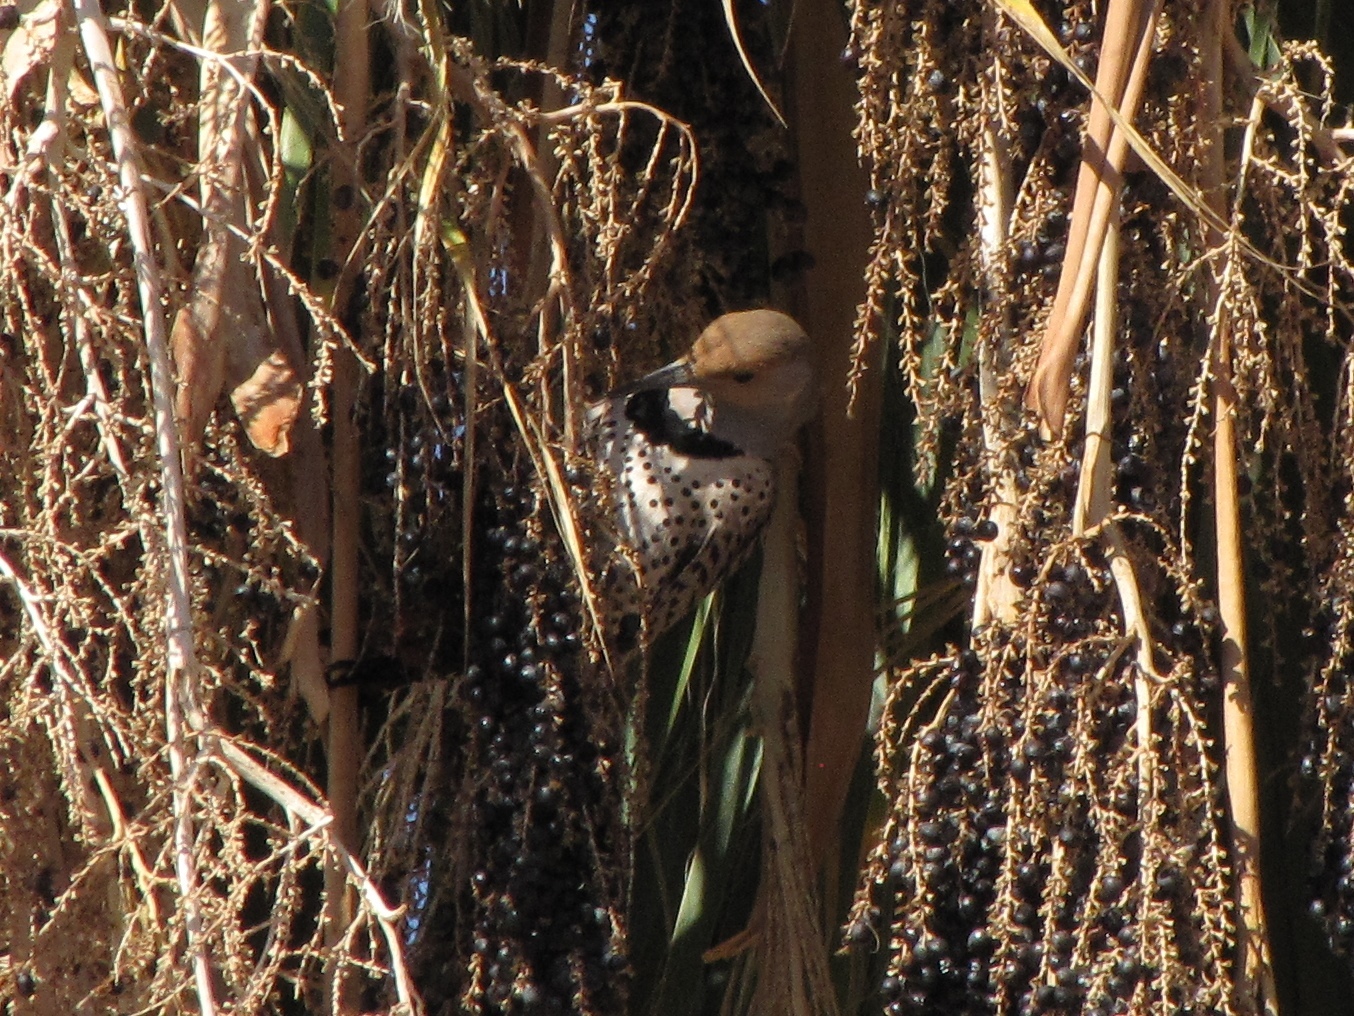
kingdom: Animalia
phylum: Chordata
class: Aves
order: Piciformes
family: Picidae
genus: Colaptes
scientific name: Colaptes auratus
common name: Northern flicker
